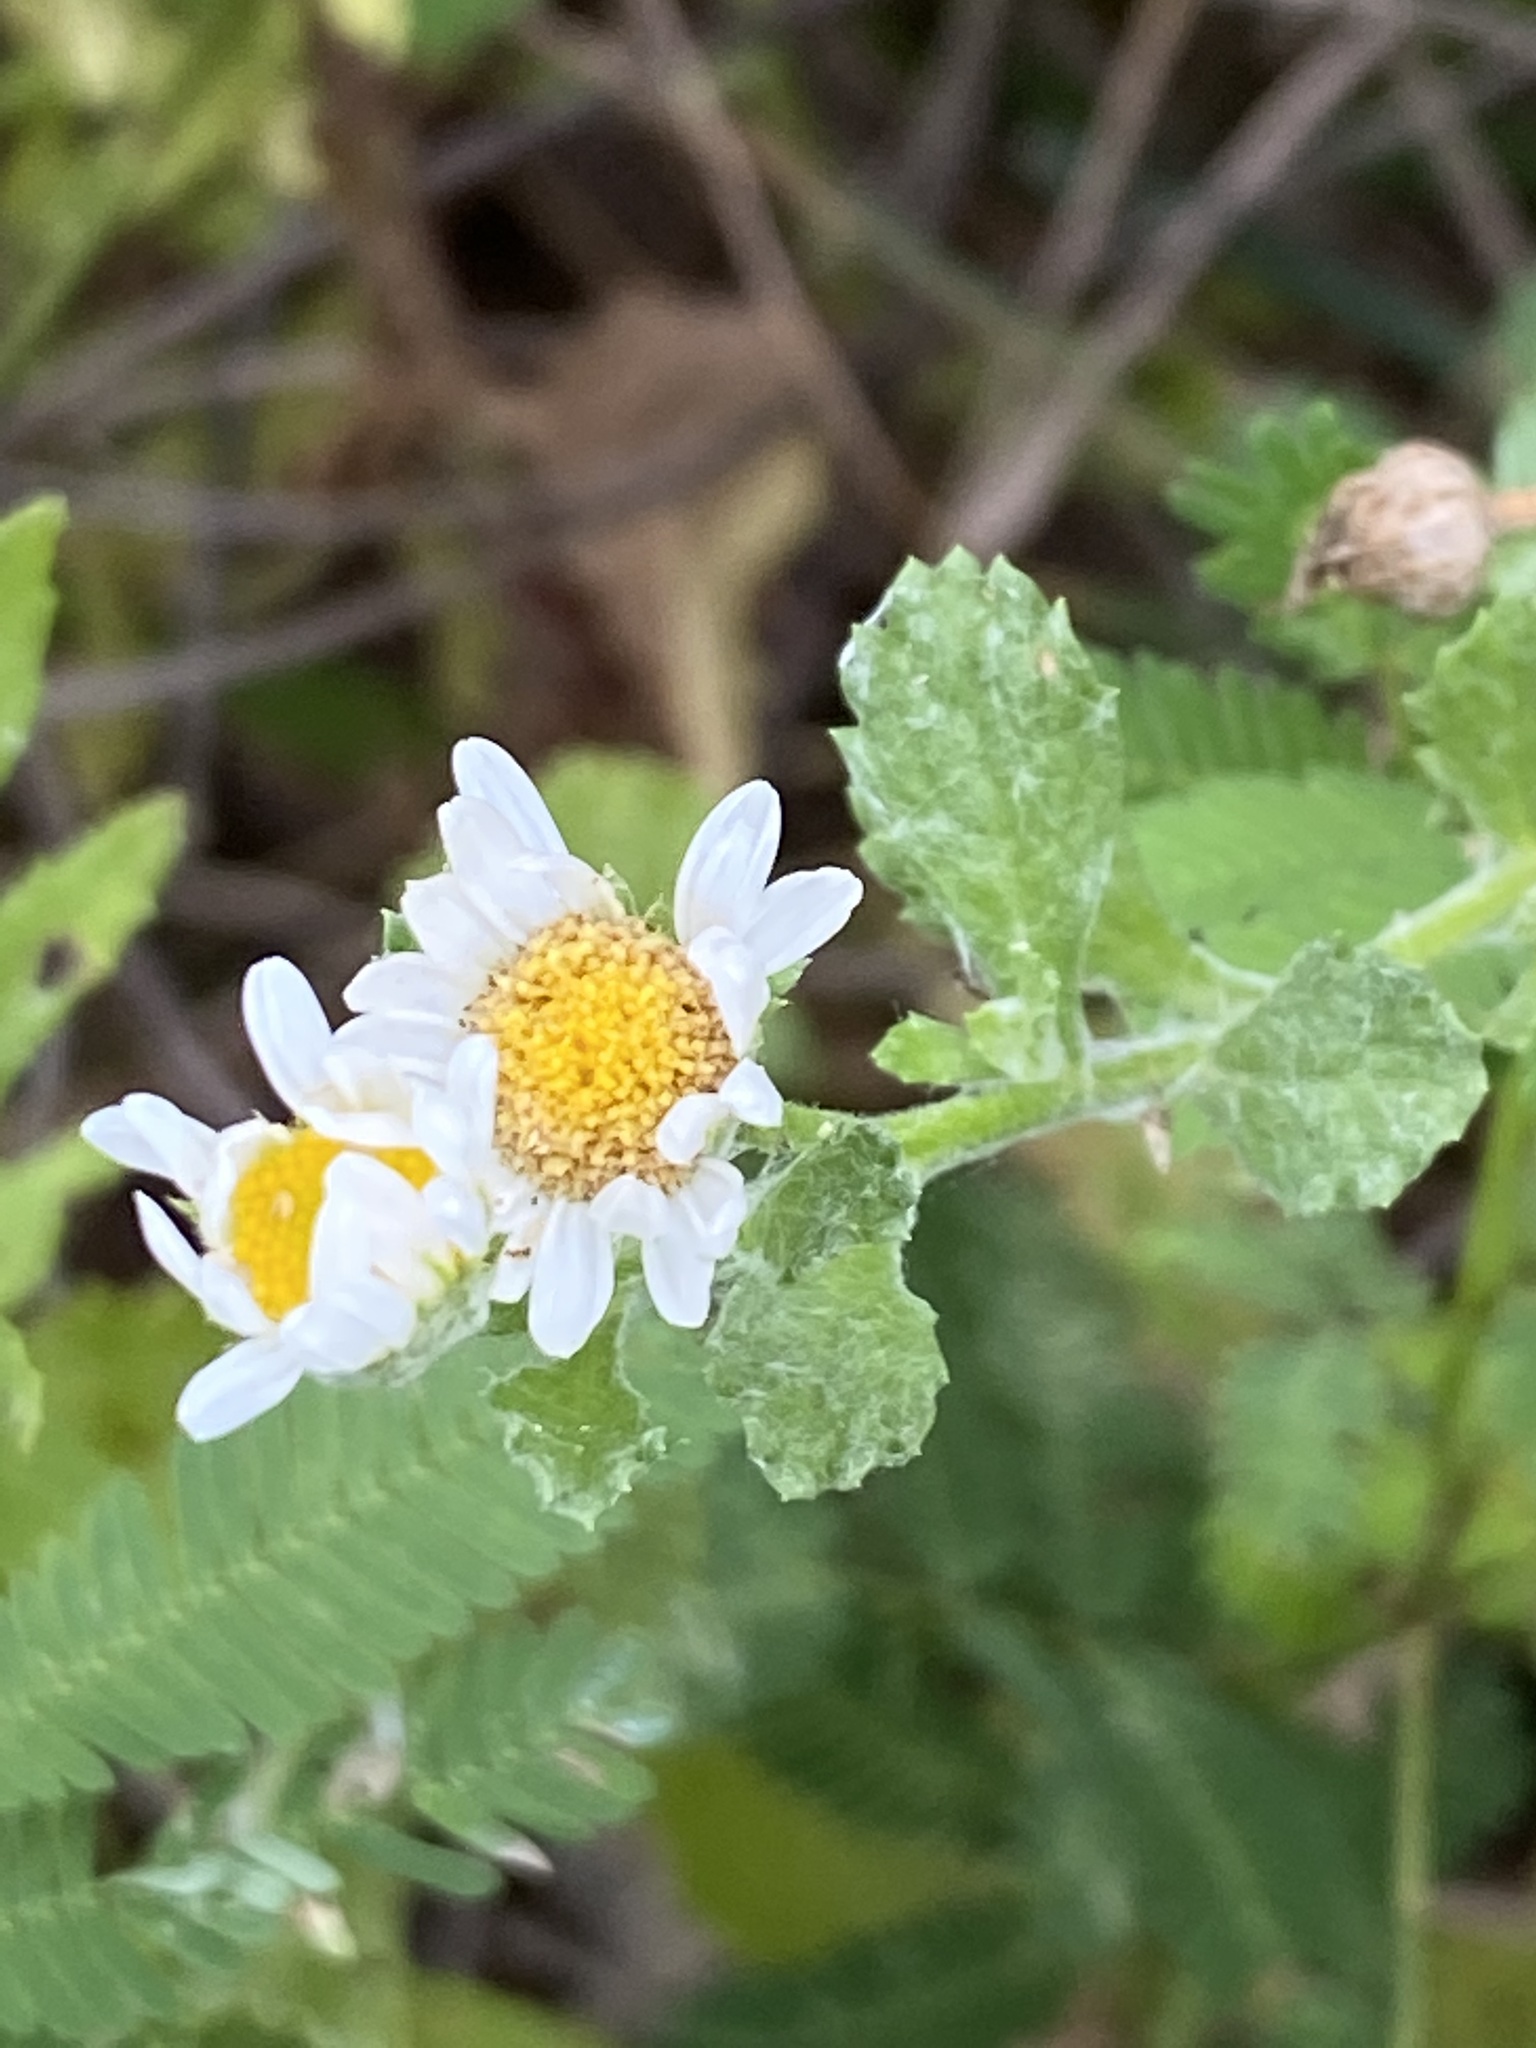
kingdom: Plantae
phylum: Tracheophyta
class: Magnoliopsida
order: Asterales
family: Asteraceae
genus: Egletes
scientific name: Egletes prostrata
